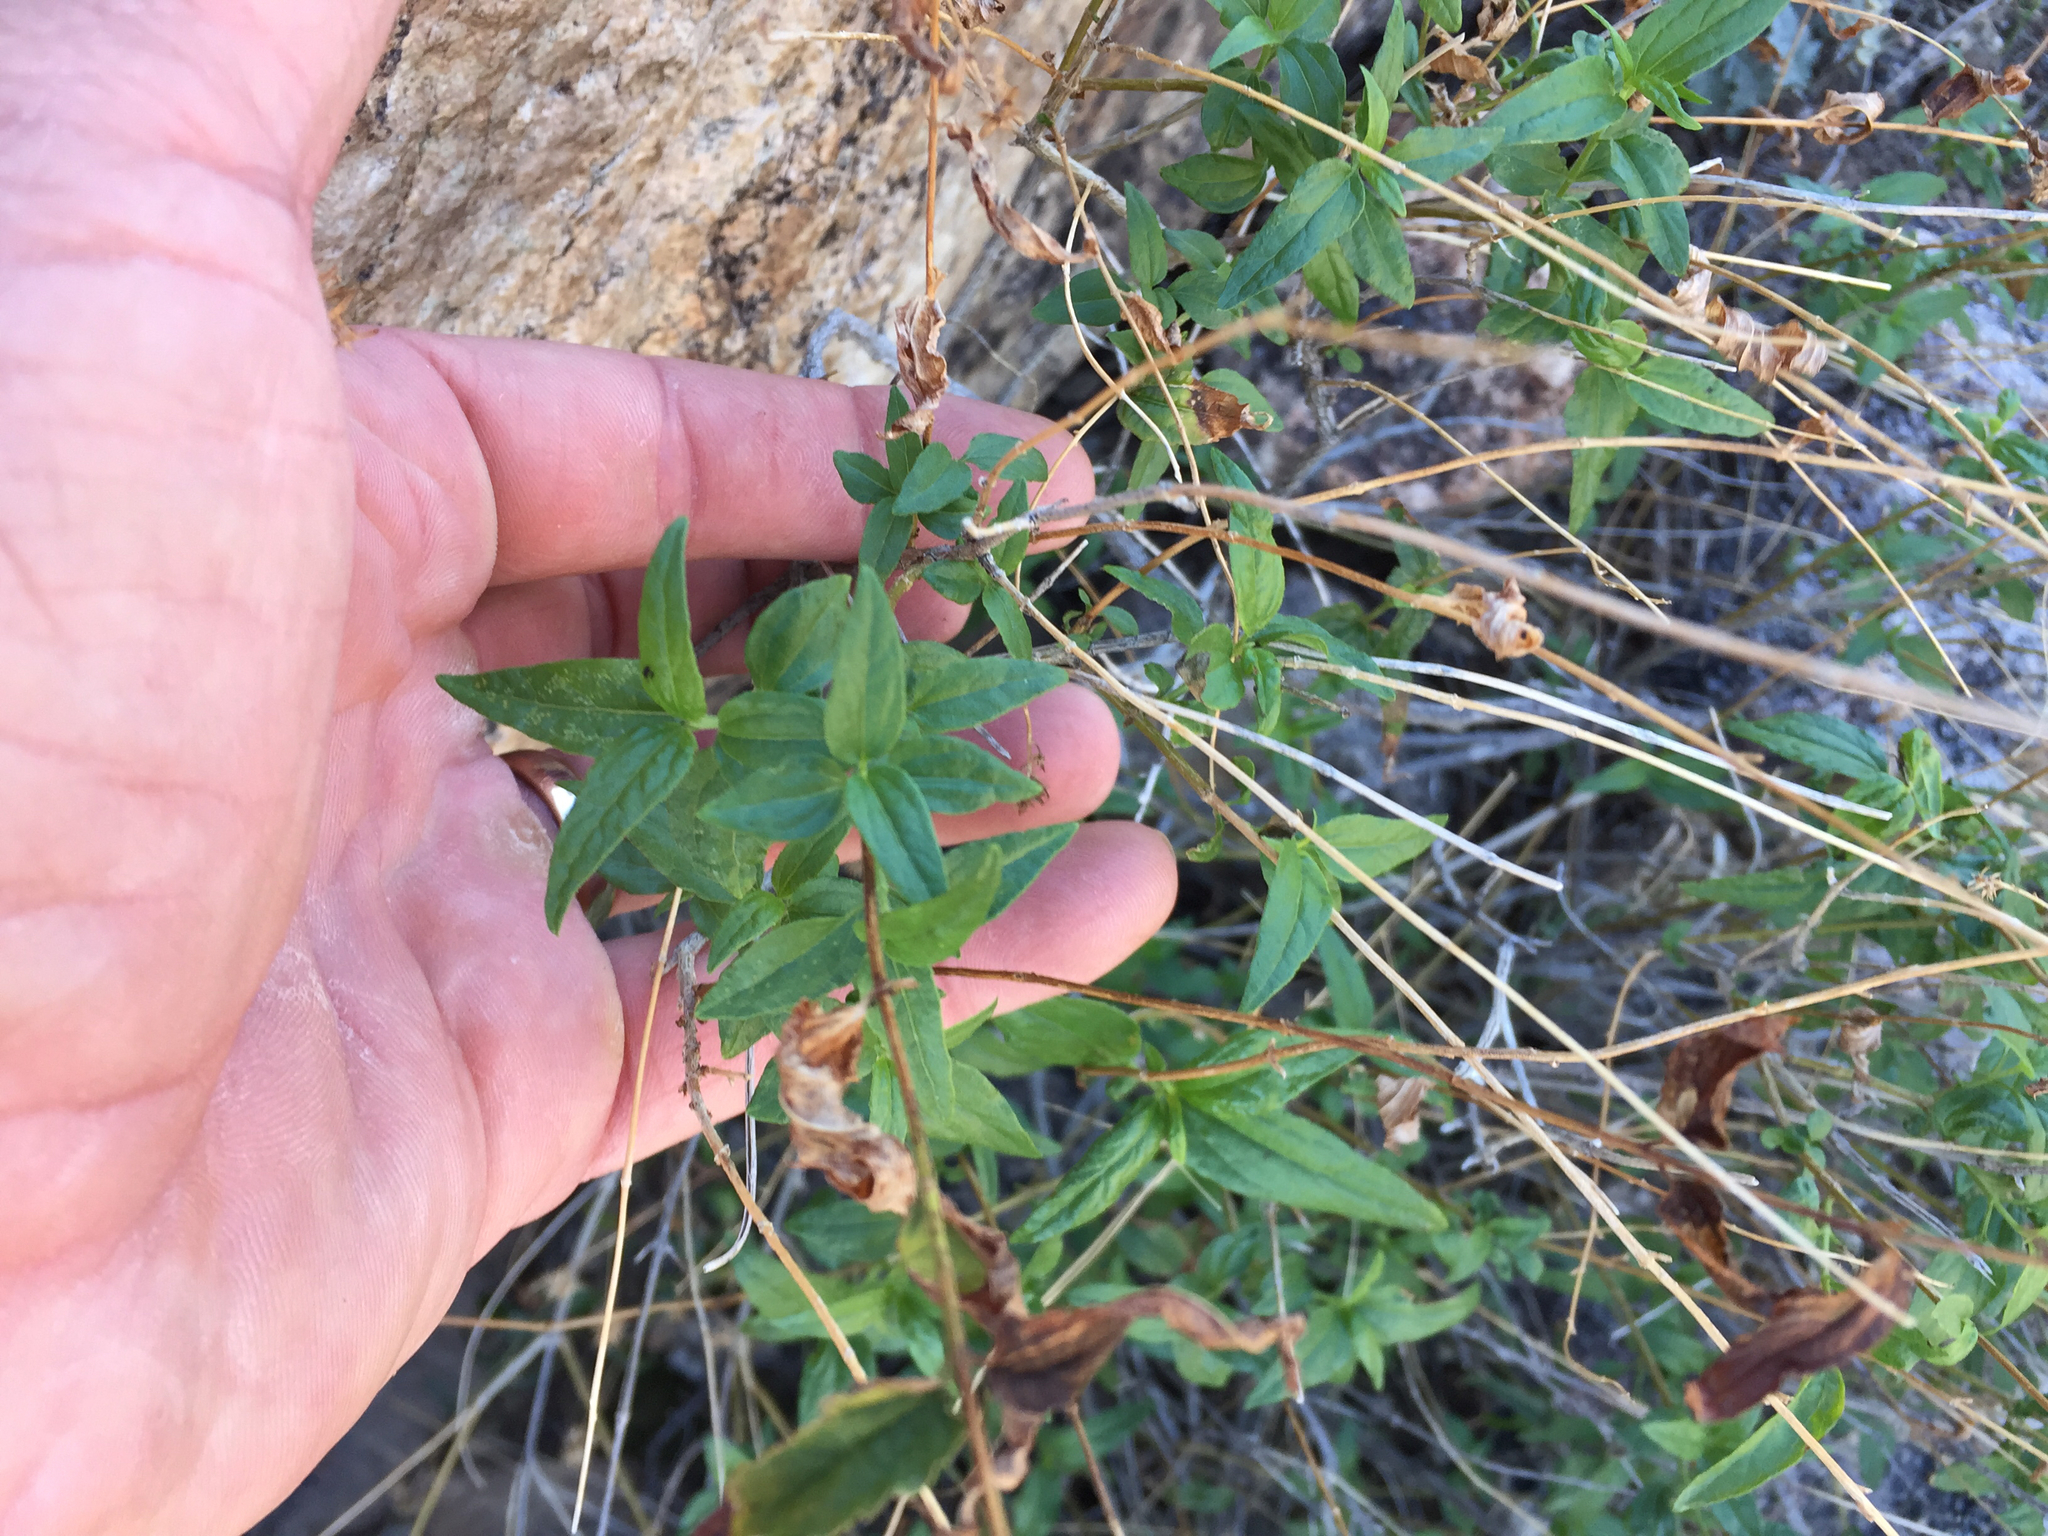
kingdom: Plantae
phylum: Tracheophyta
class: Magnoliopsida
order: Asterales
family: Asteraceae
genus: Trixis
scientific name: Trixis californica
